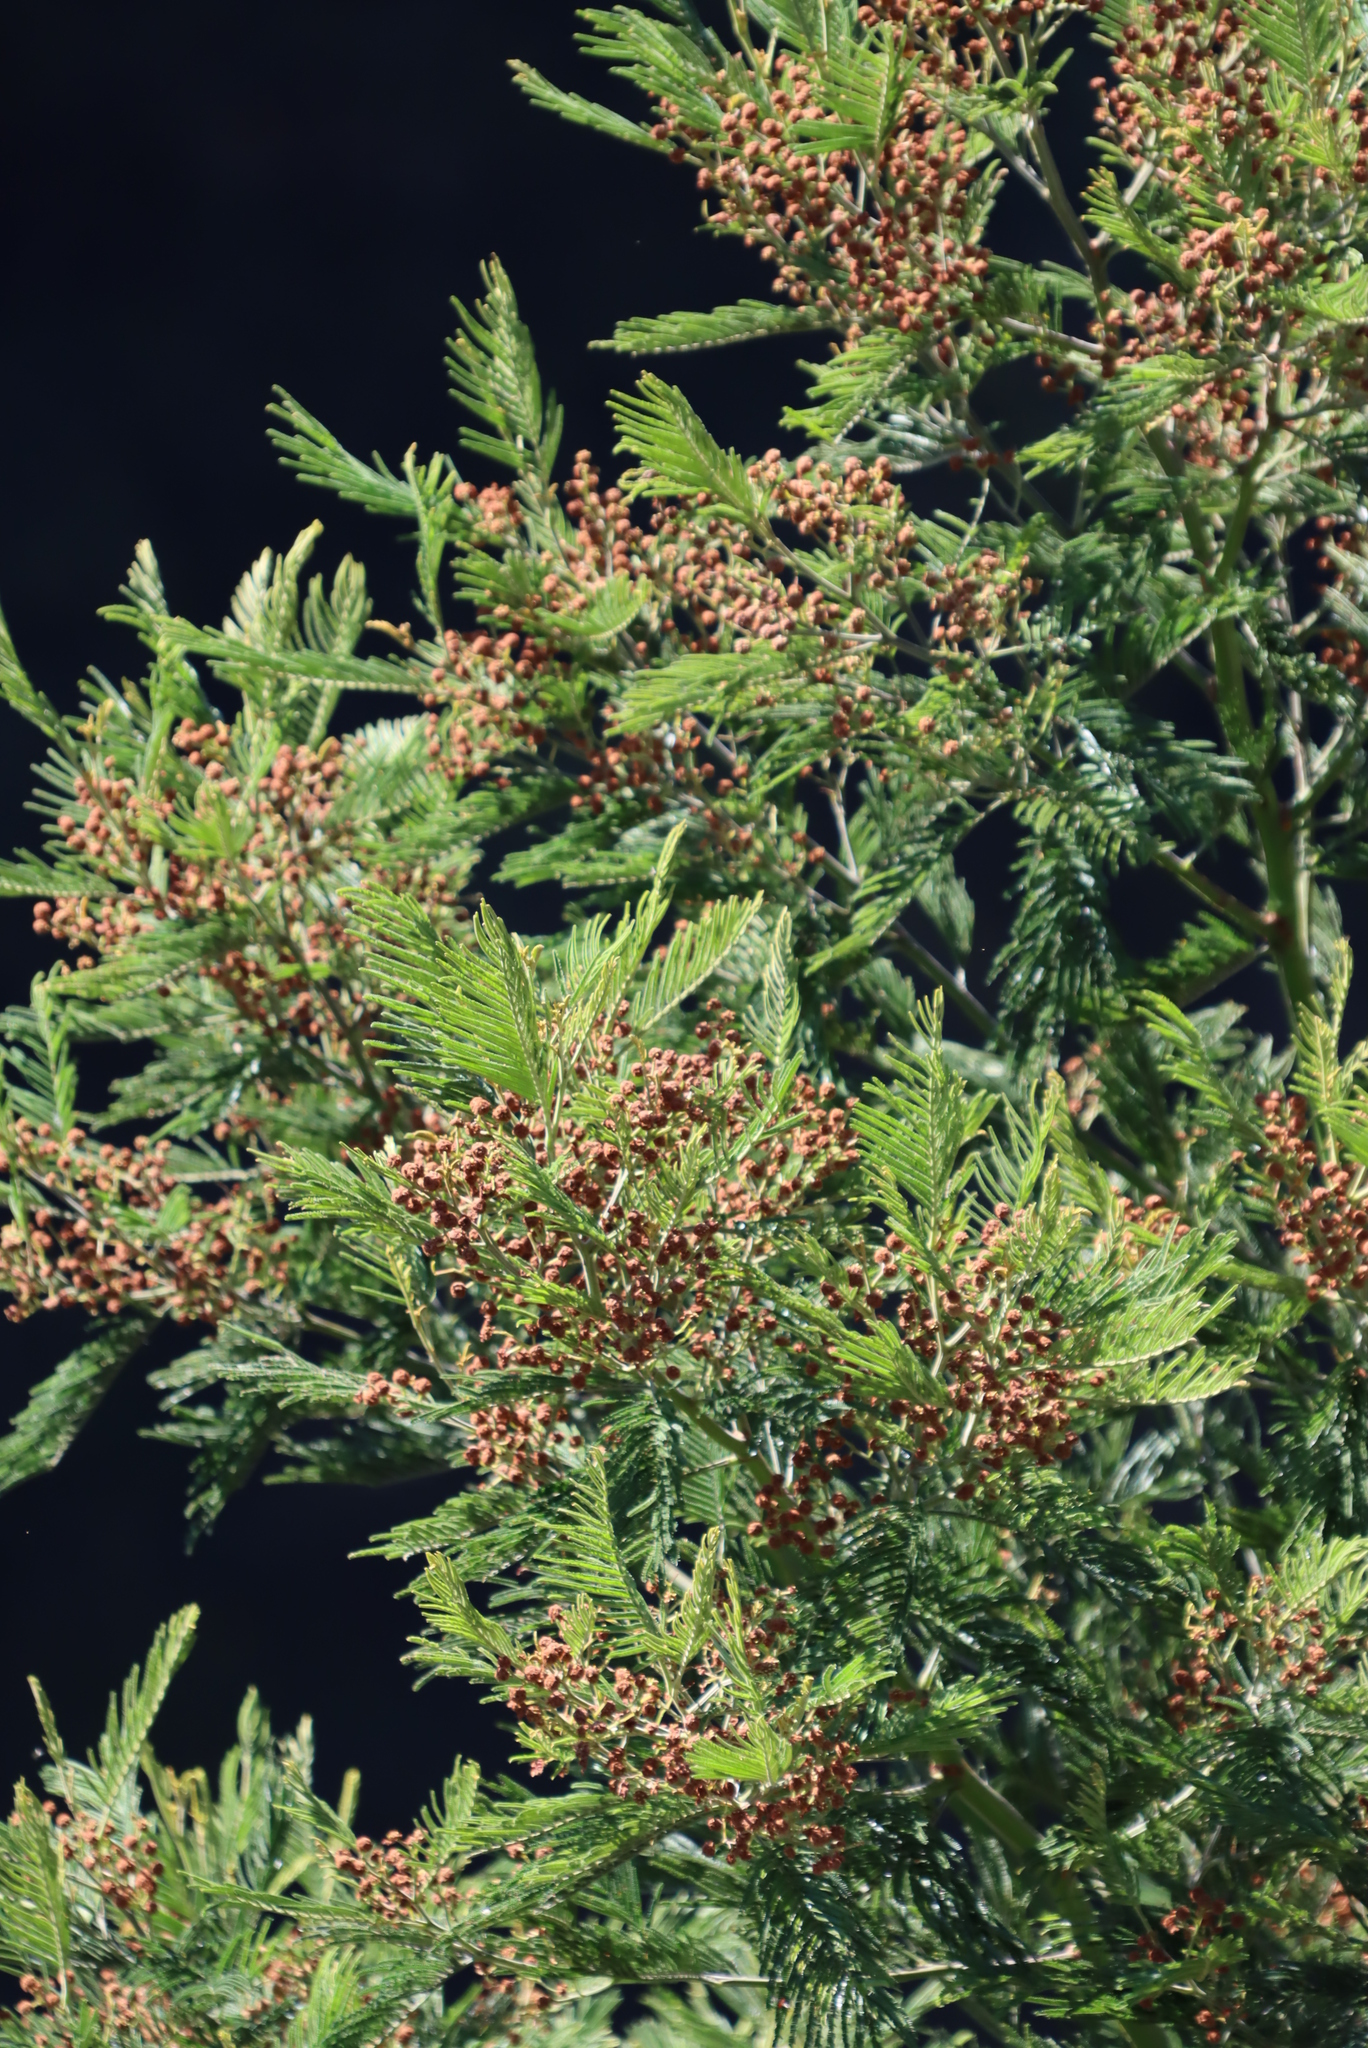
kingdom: Plantae
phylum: Tracheophyta
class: Magnoliopsida
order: Fabales
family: Fabaceae
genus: Acacia
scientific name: Acacia mearnsii
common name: Black wattle
